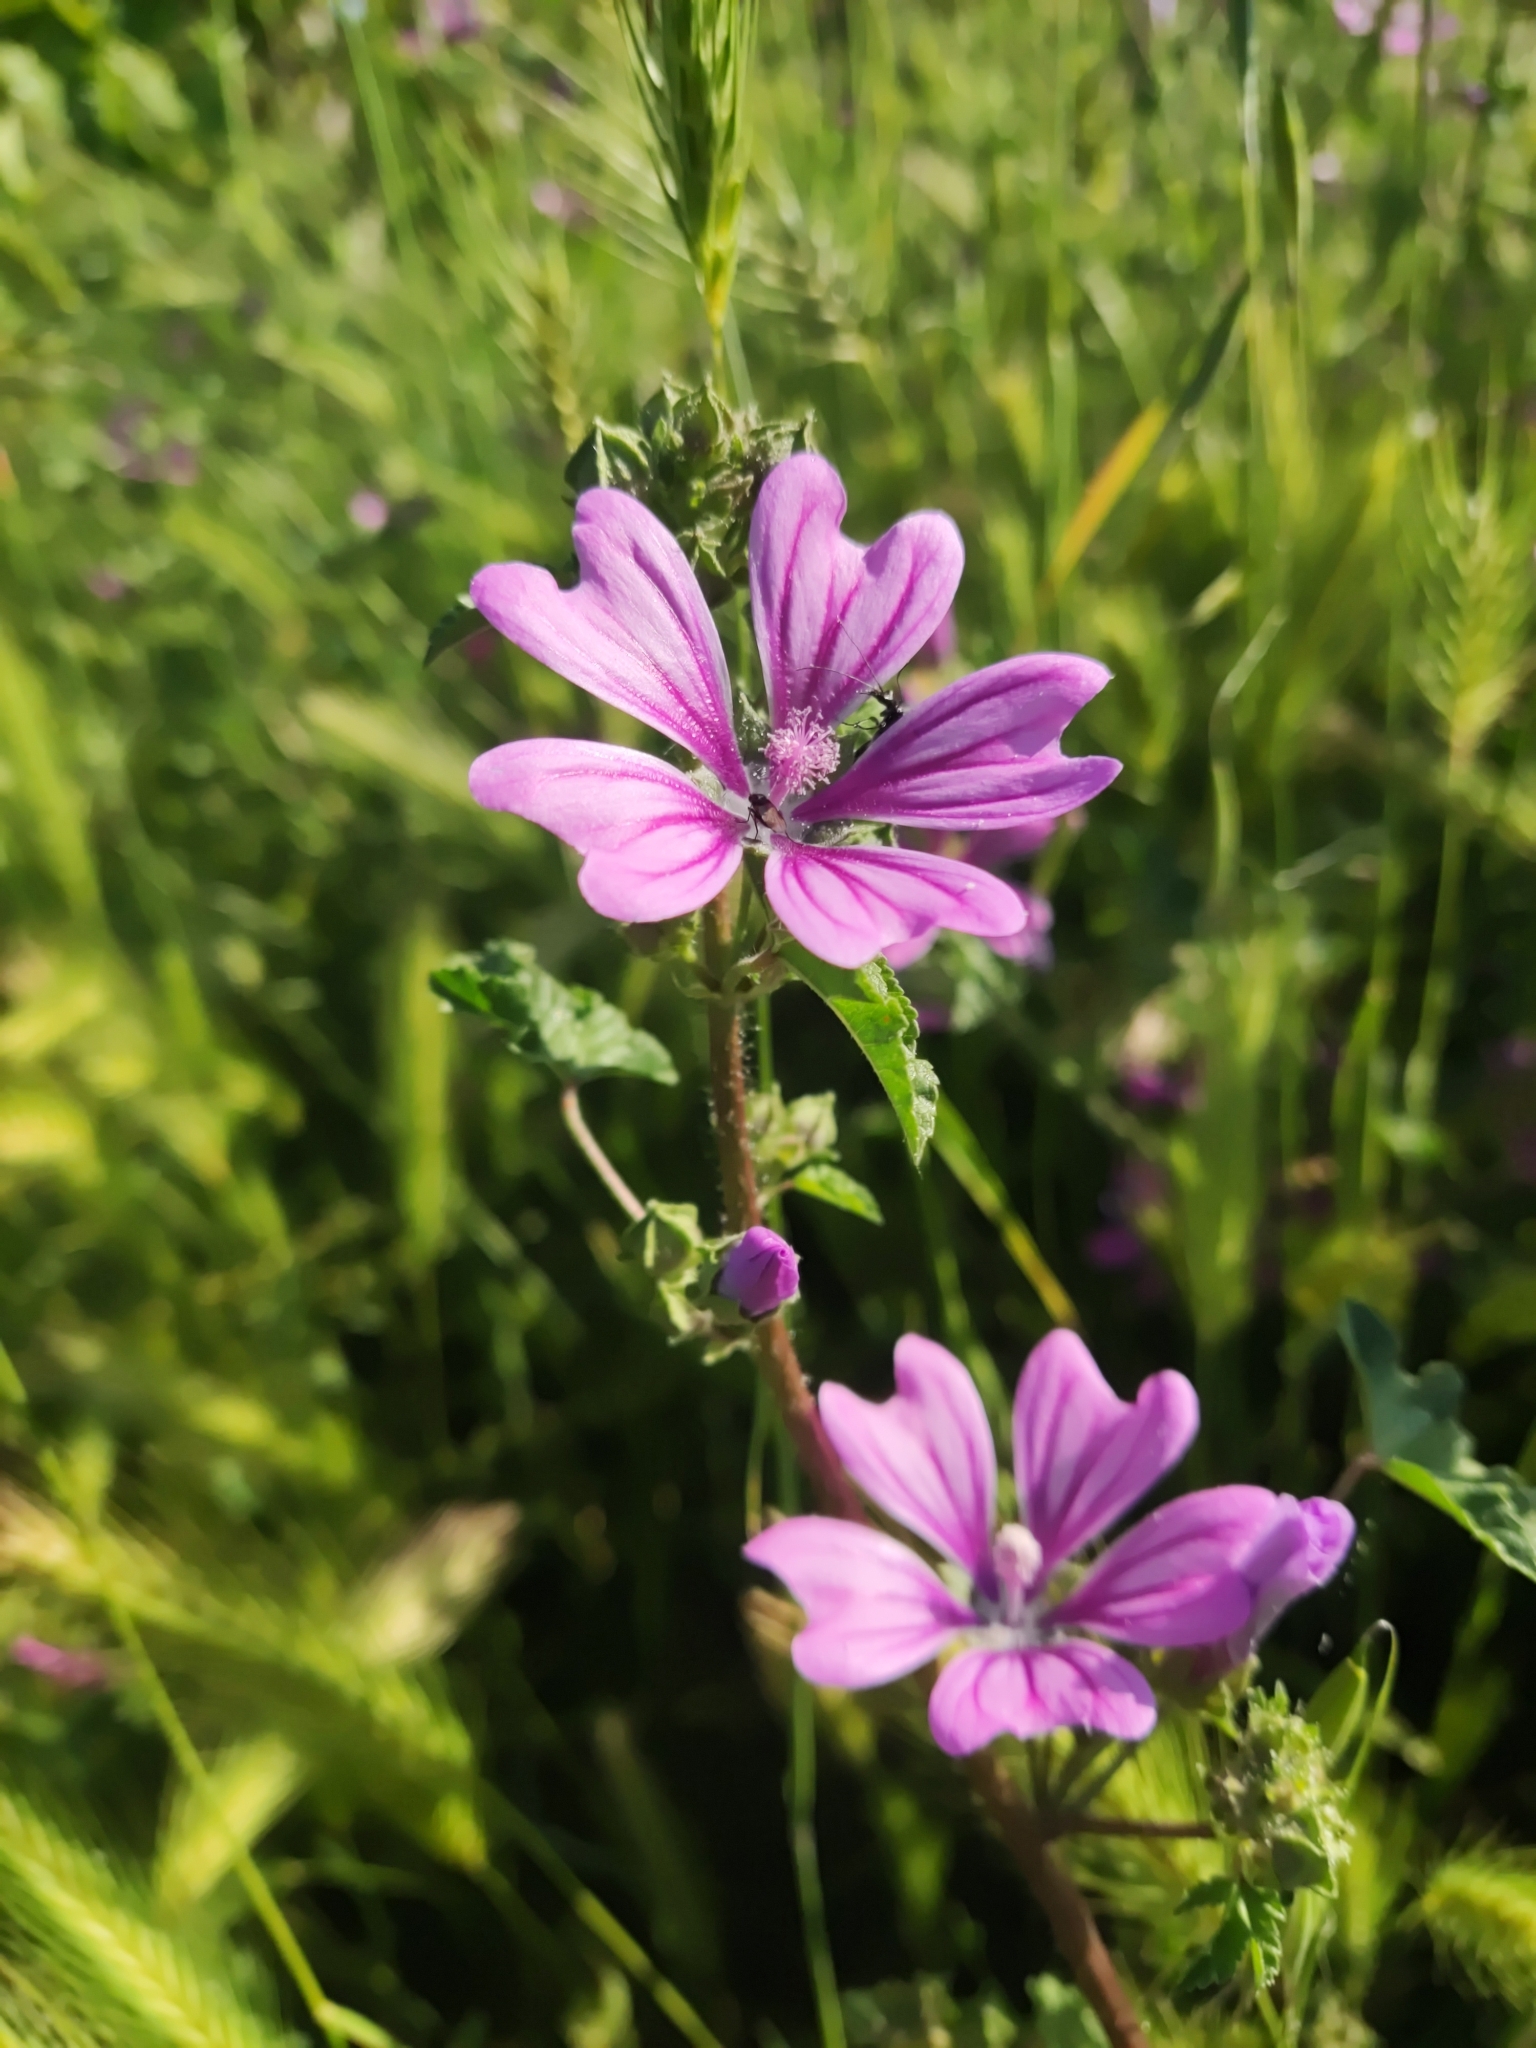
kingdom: Plantae
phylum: Tracheophyta
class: Magnoliopsida
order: Malvales
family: Malvaceae
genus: Malva
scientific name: Malva sylvestris
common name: Common mallow
